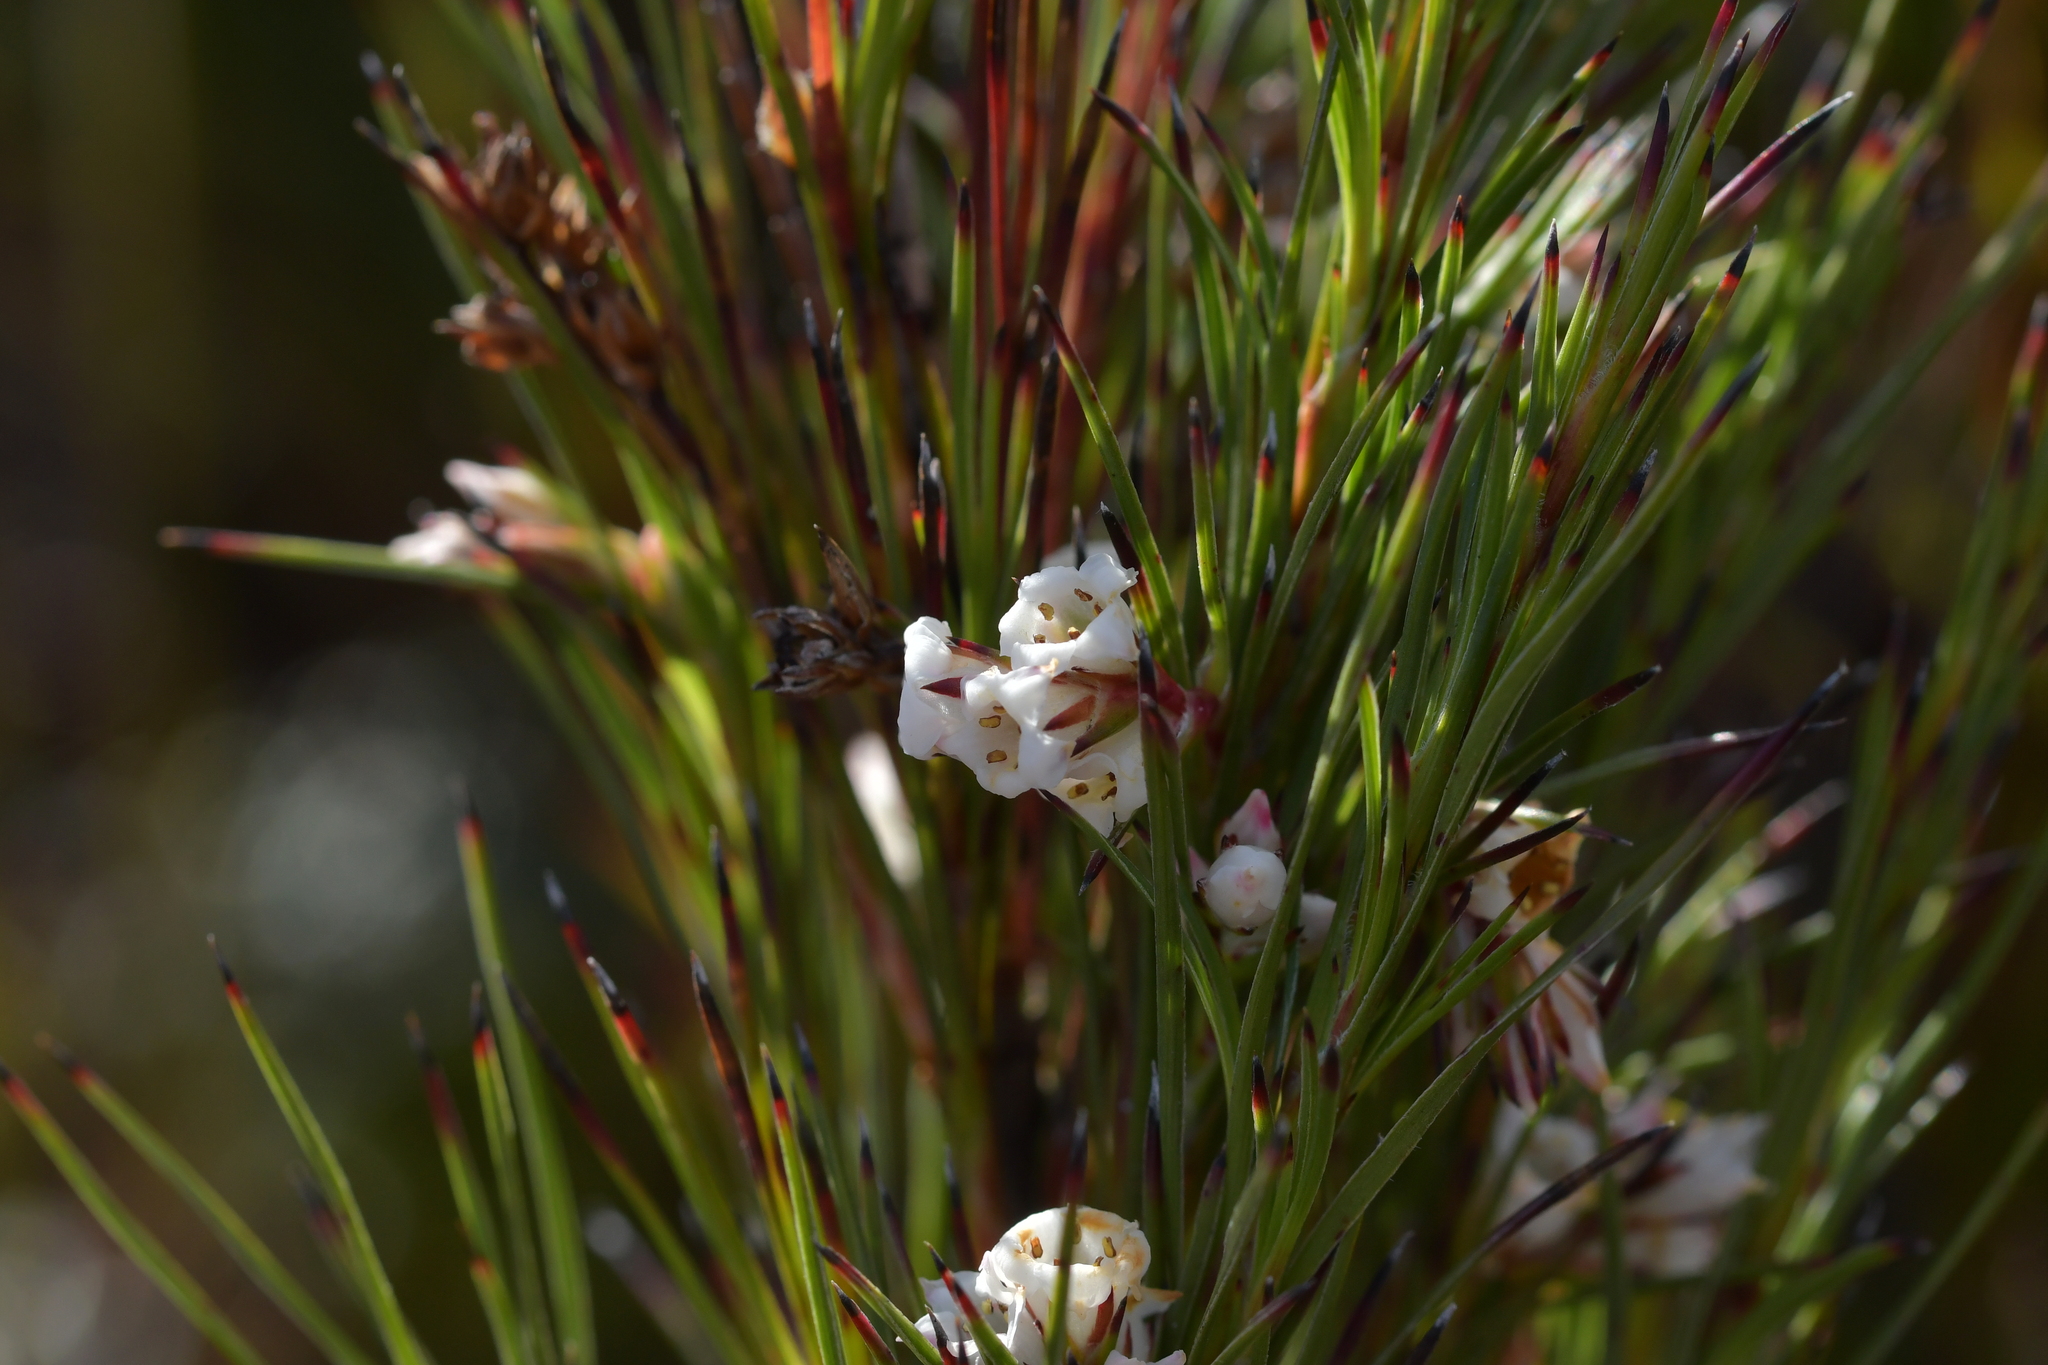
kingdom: Plantae
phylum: Tracheophyta
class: Magnoliopsida
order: Ericales
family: Ericaceae
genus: Dracophyllum
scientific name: Dracophyllum scoparium
